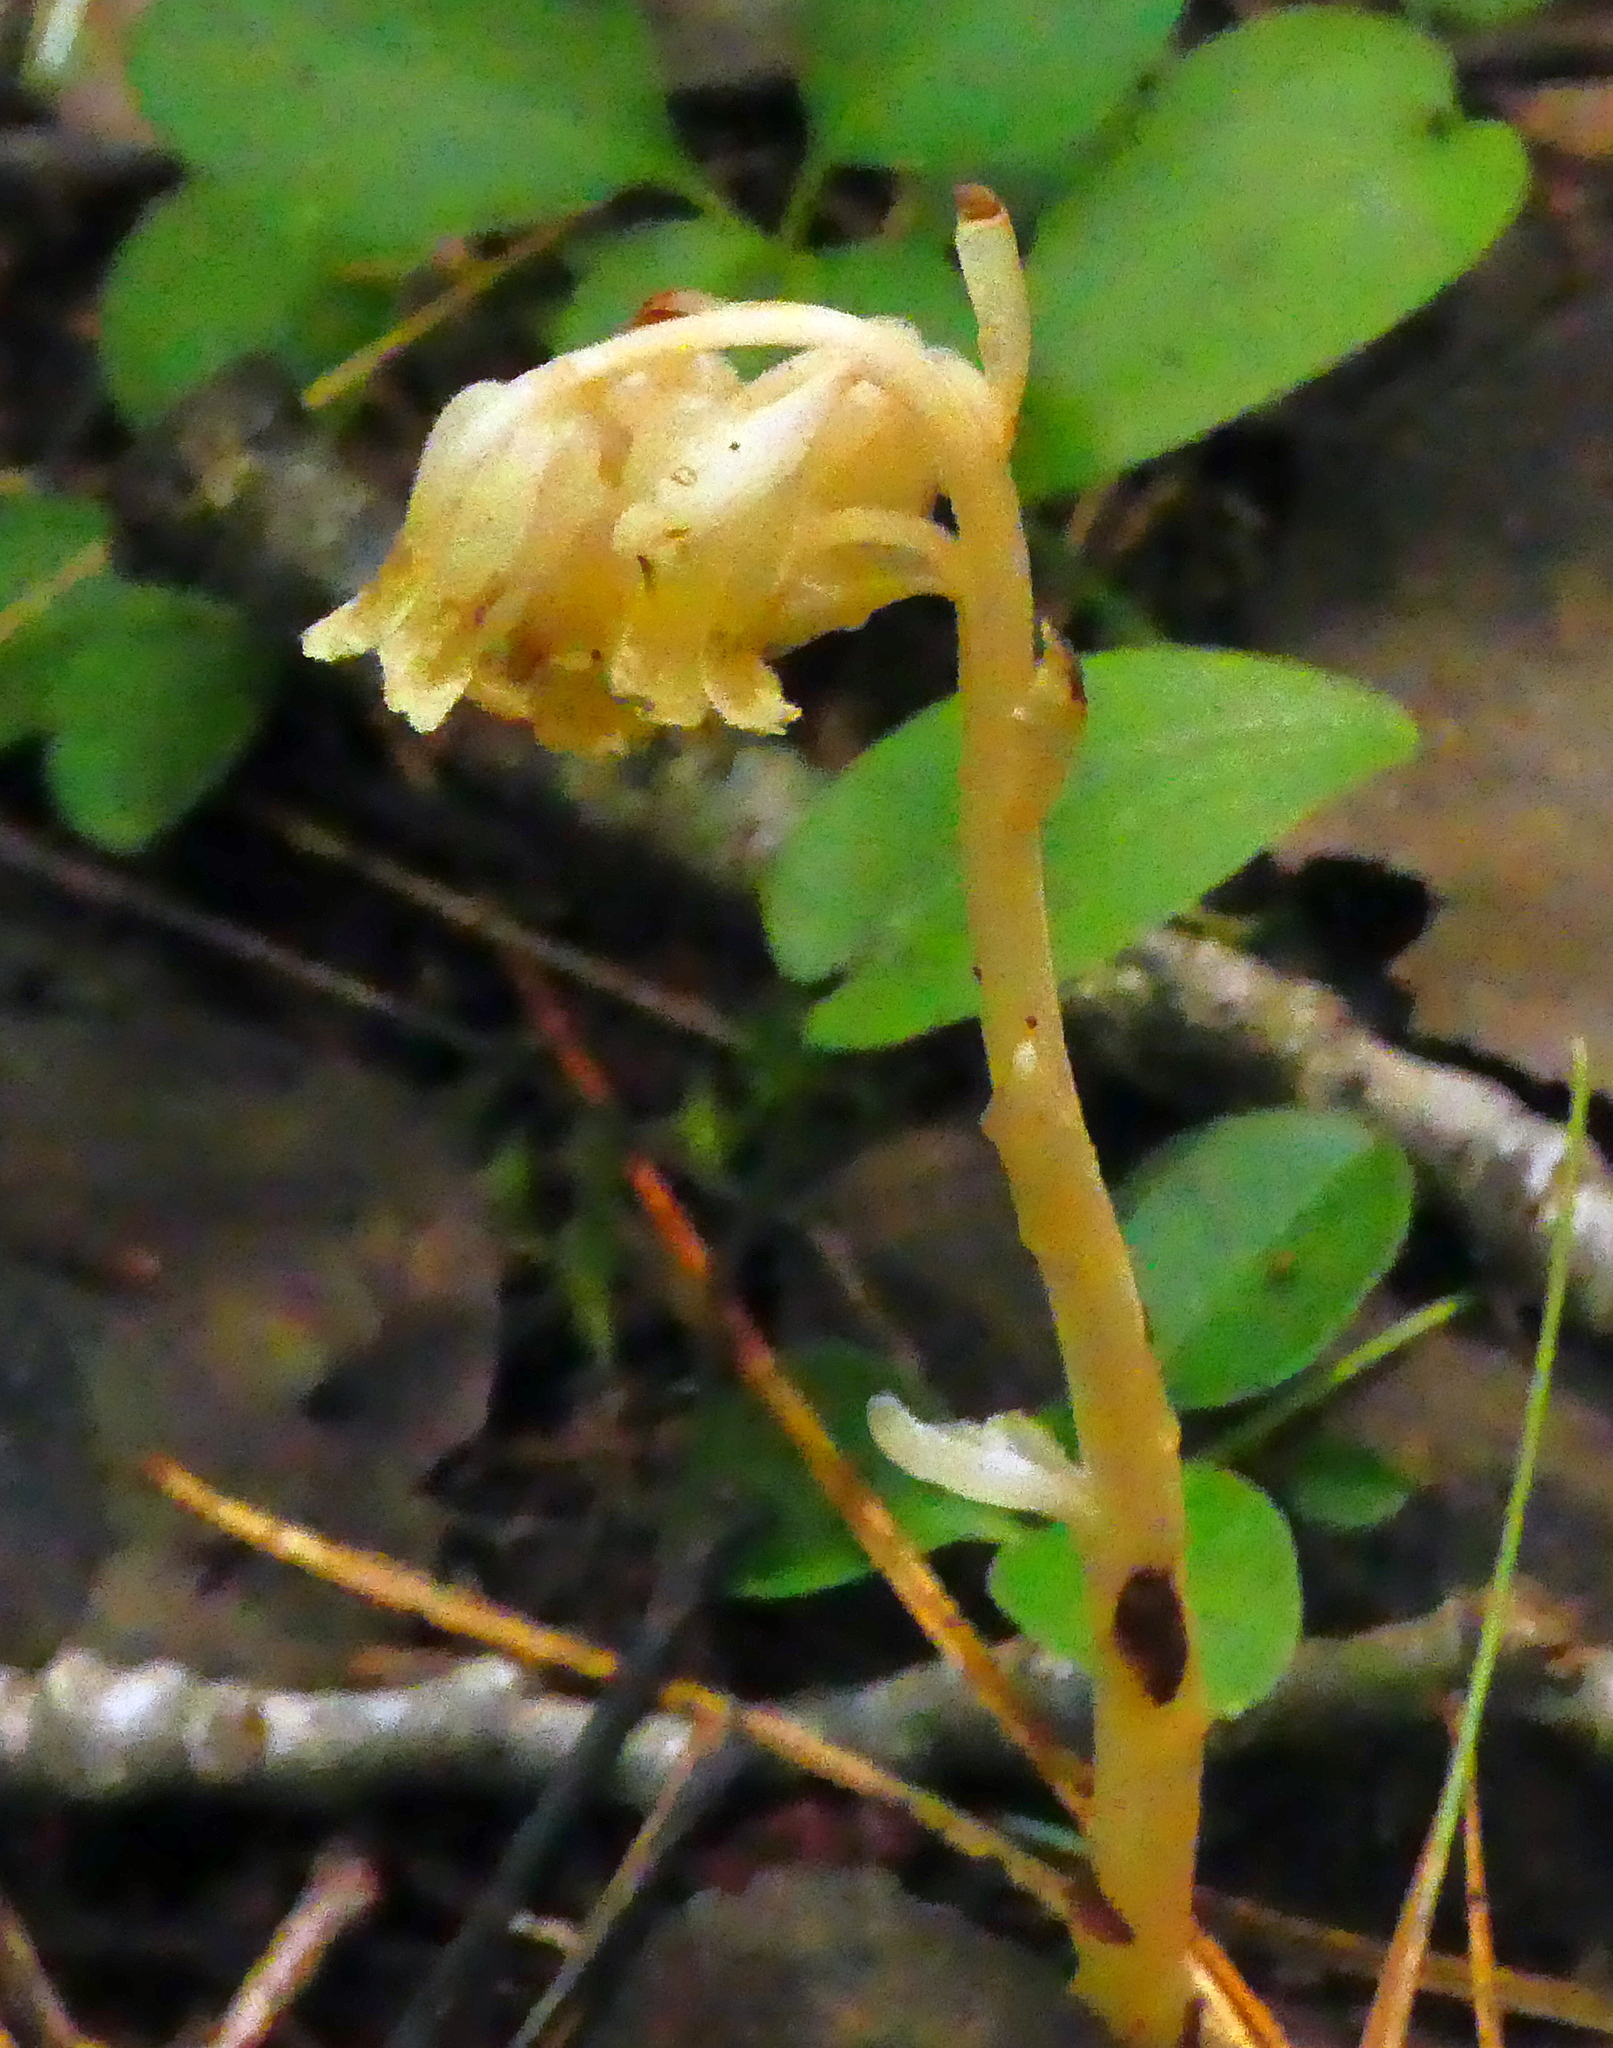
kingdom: Plantae
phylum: Tracheophyta
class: Magnoliopsida
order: Ericales
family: Ericaceae
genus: Hypopitys
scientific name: Hypopitys monotropa
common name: Yellow bird's-nest
